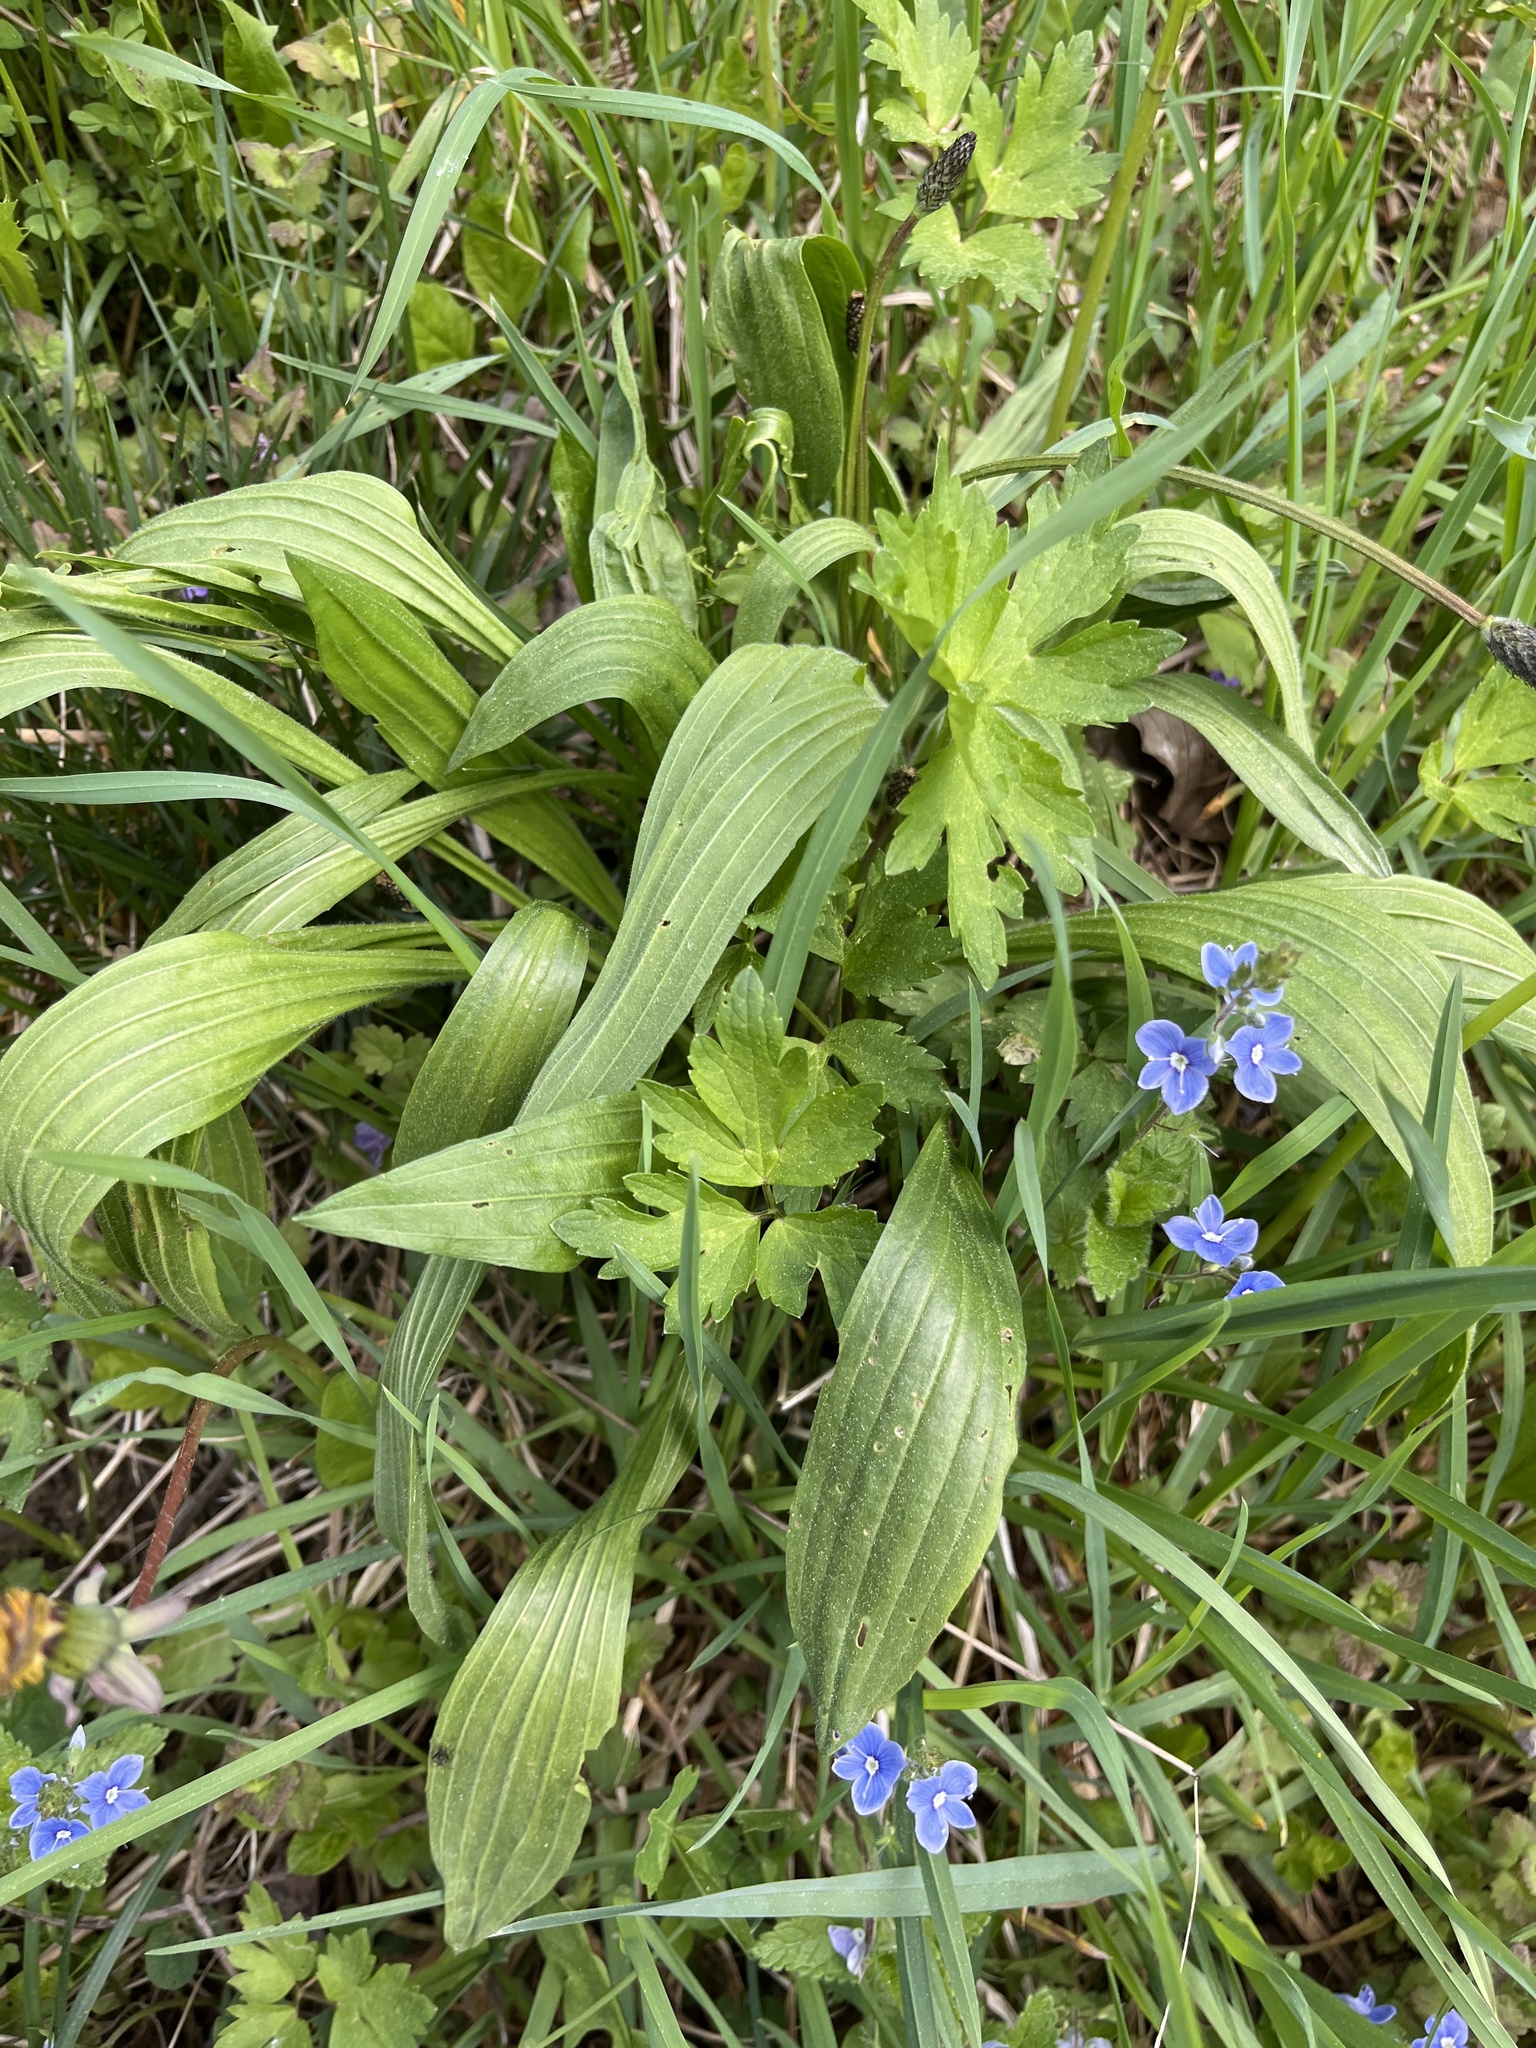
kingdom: Plantae
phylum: Tracheophyta
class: Magnoliopsida
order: Lamiales
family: Plantaginaceae
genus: Plantago
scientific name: Plantago lanceolata
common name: Ribwort plantain
